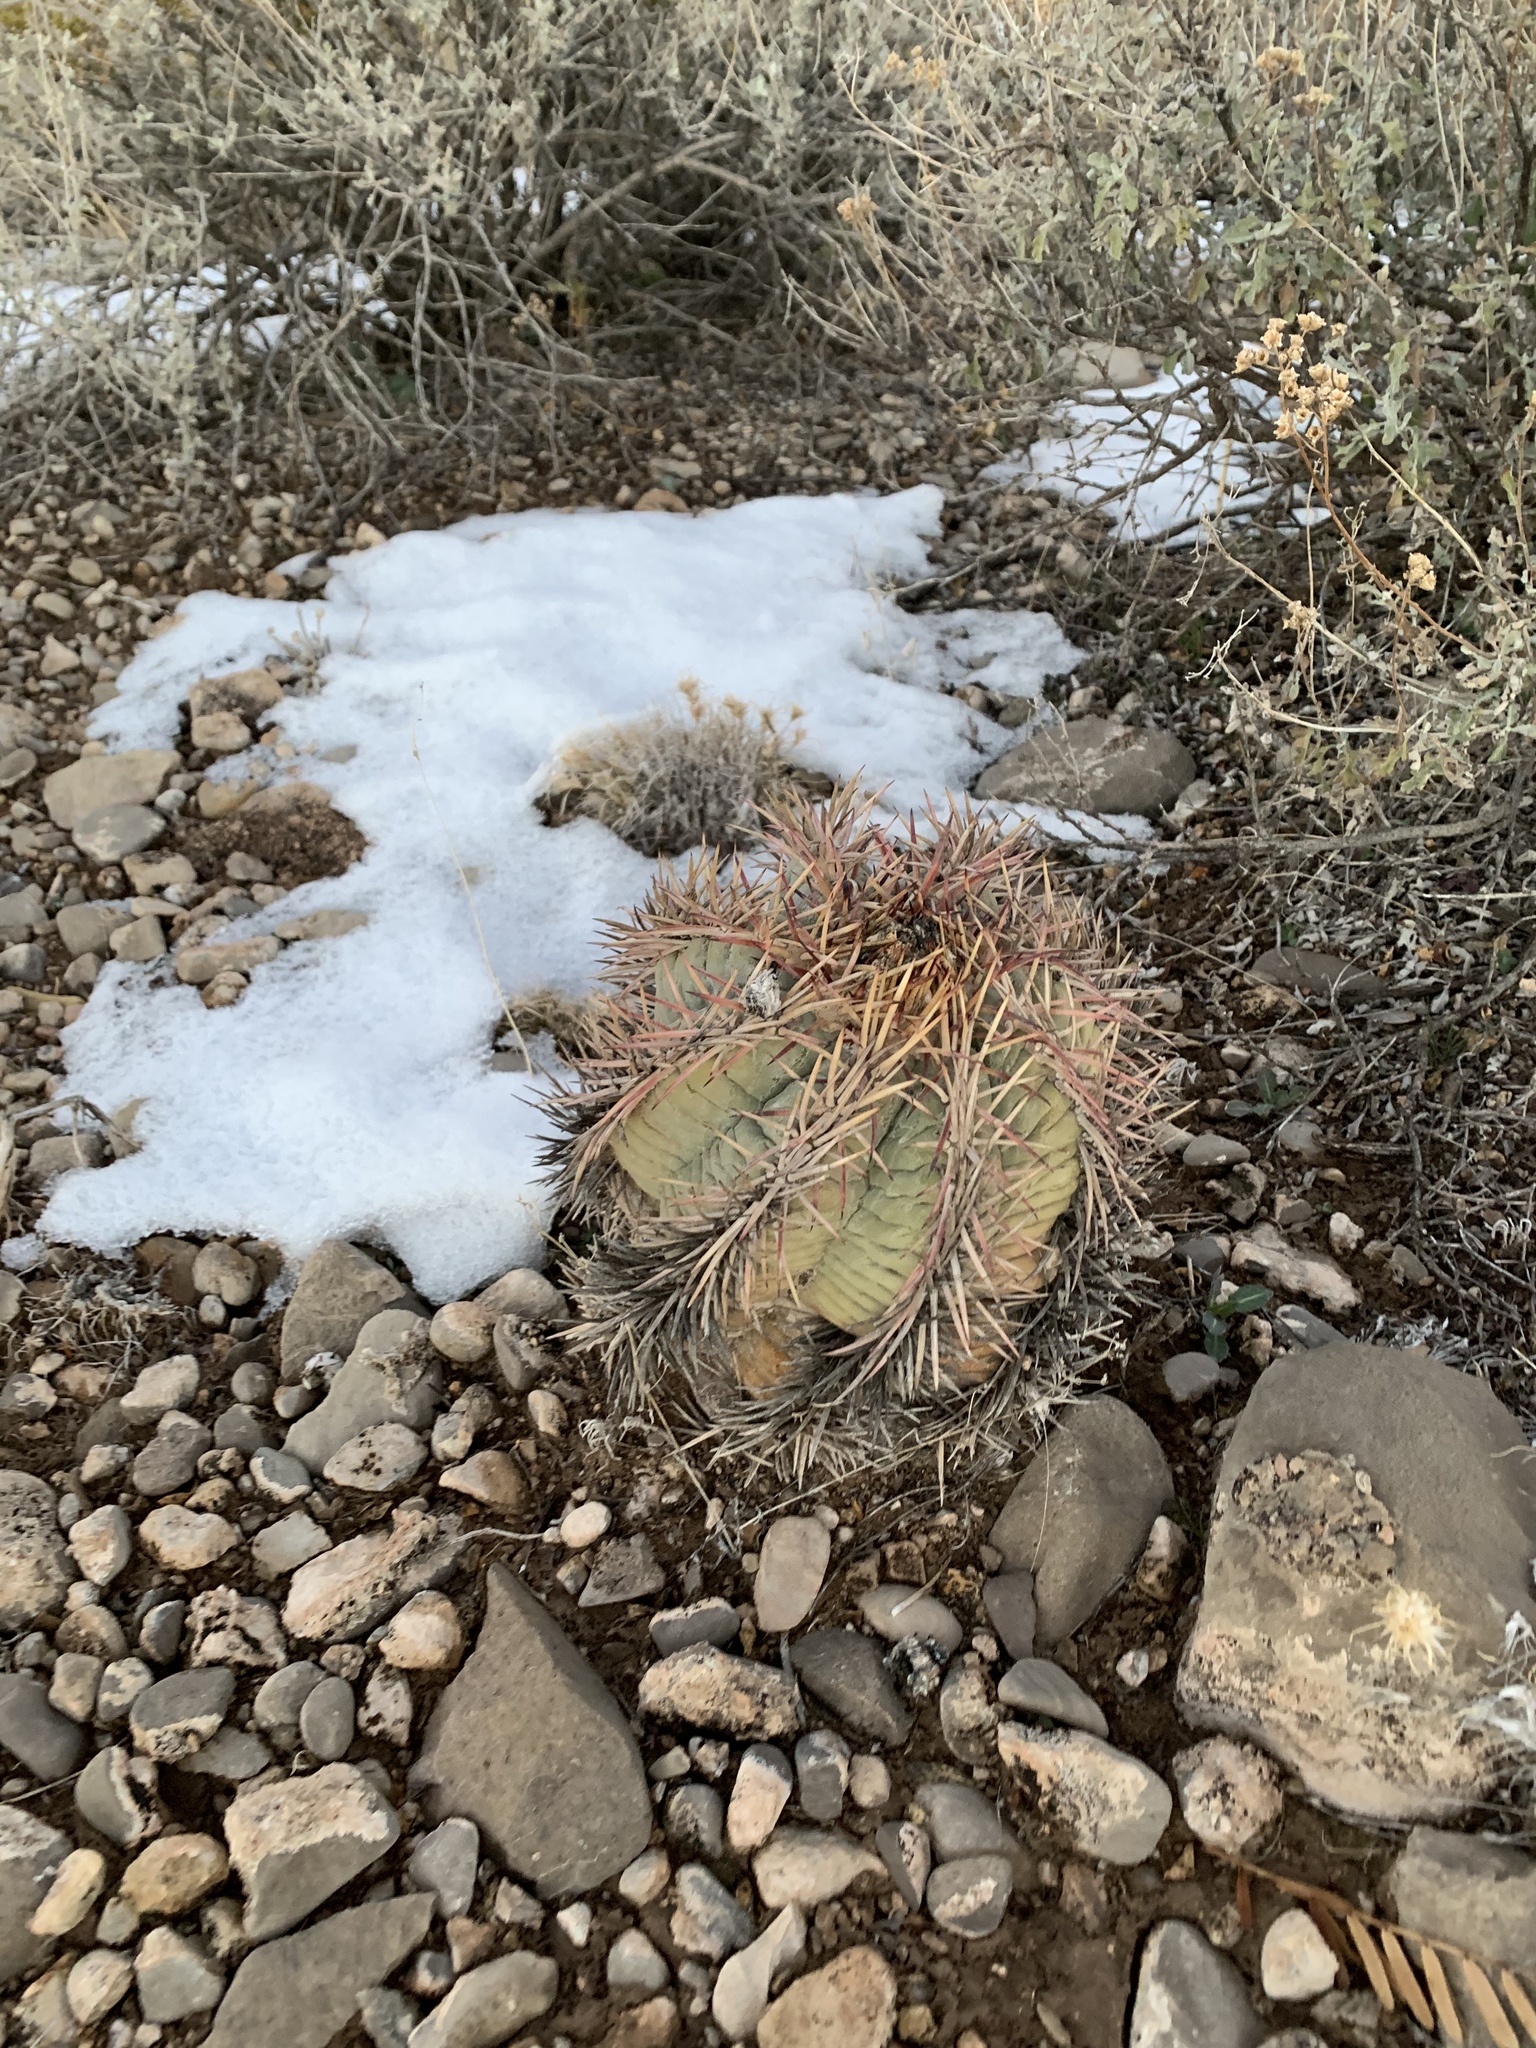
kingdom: Plantae
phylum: Tracheophyta
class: Magnoliopsida
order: Caryophyllales
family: Cactaceae
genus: Echinocactus
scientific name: Echinocactus horizonthalonius
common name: Devilshead
